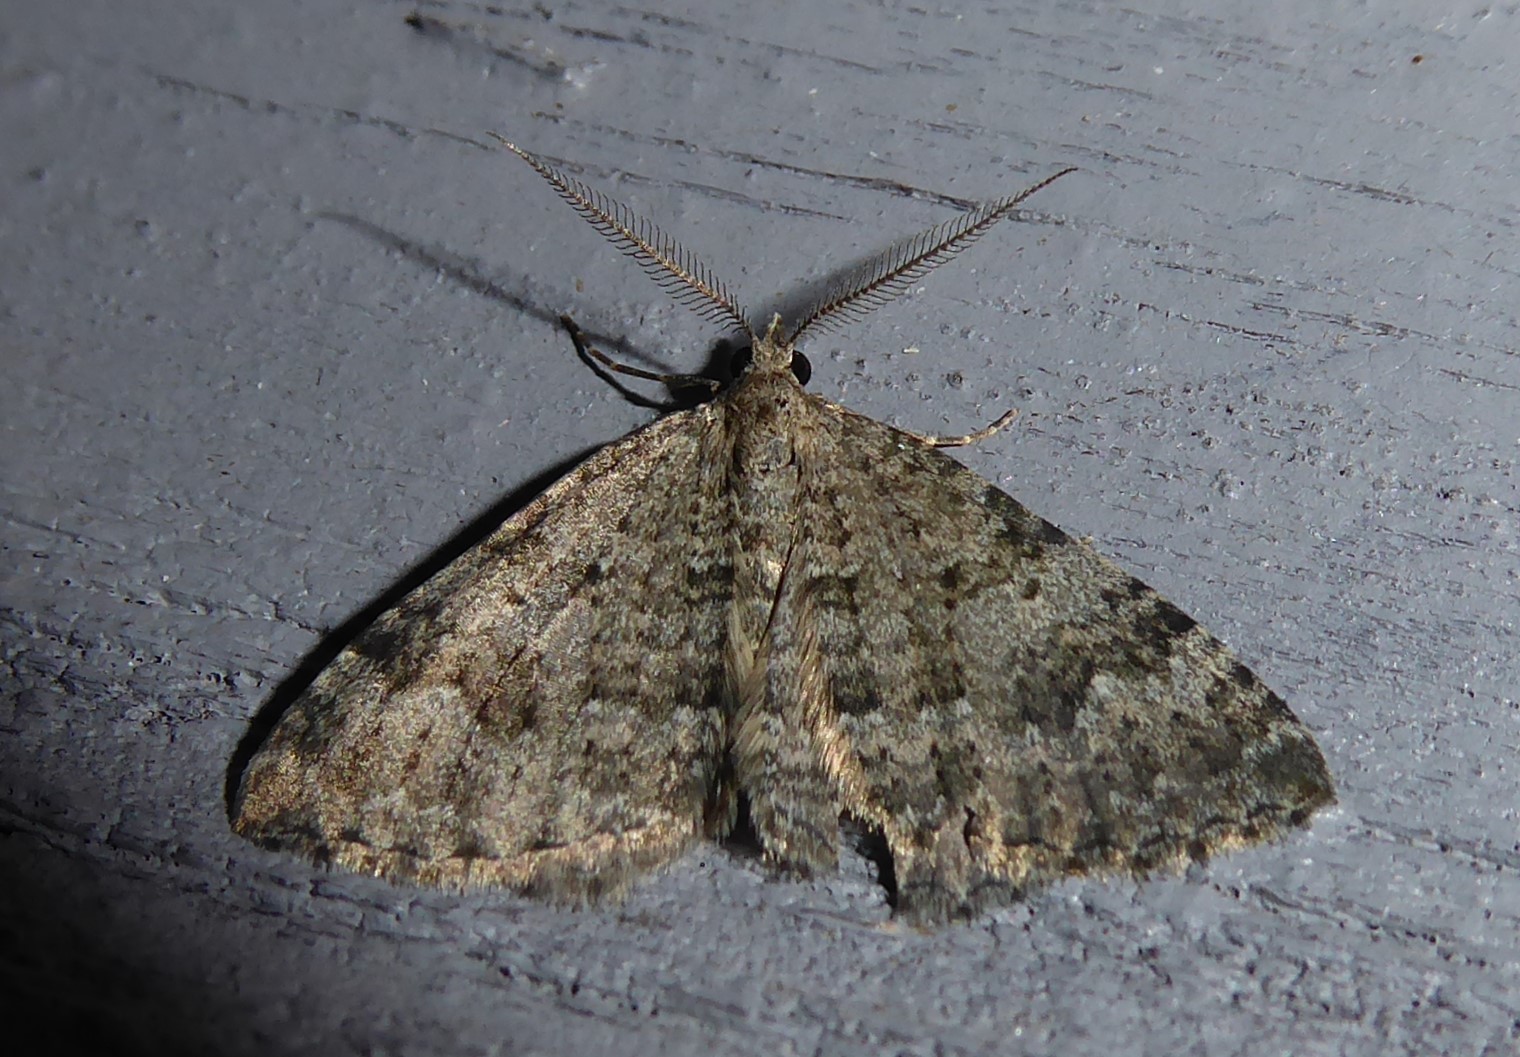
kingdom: Animalia
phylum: Arthropoda
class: Insecta
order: Lepidoptera
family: Geometridae
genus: Helastia
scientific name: Helastia corcularia
